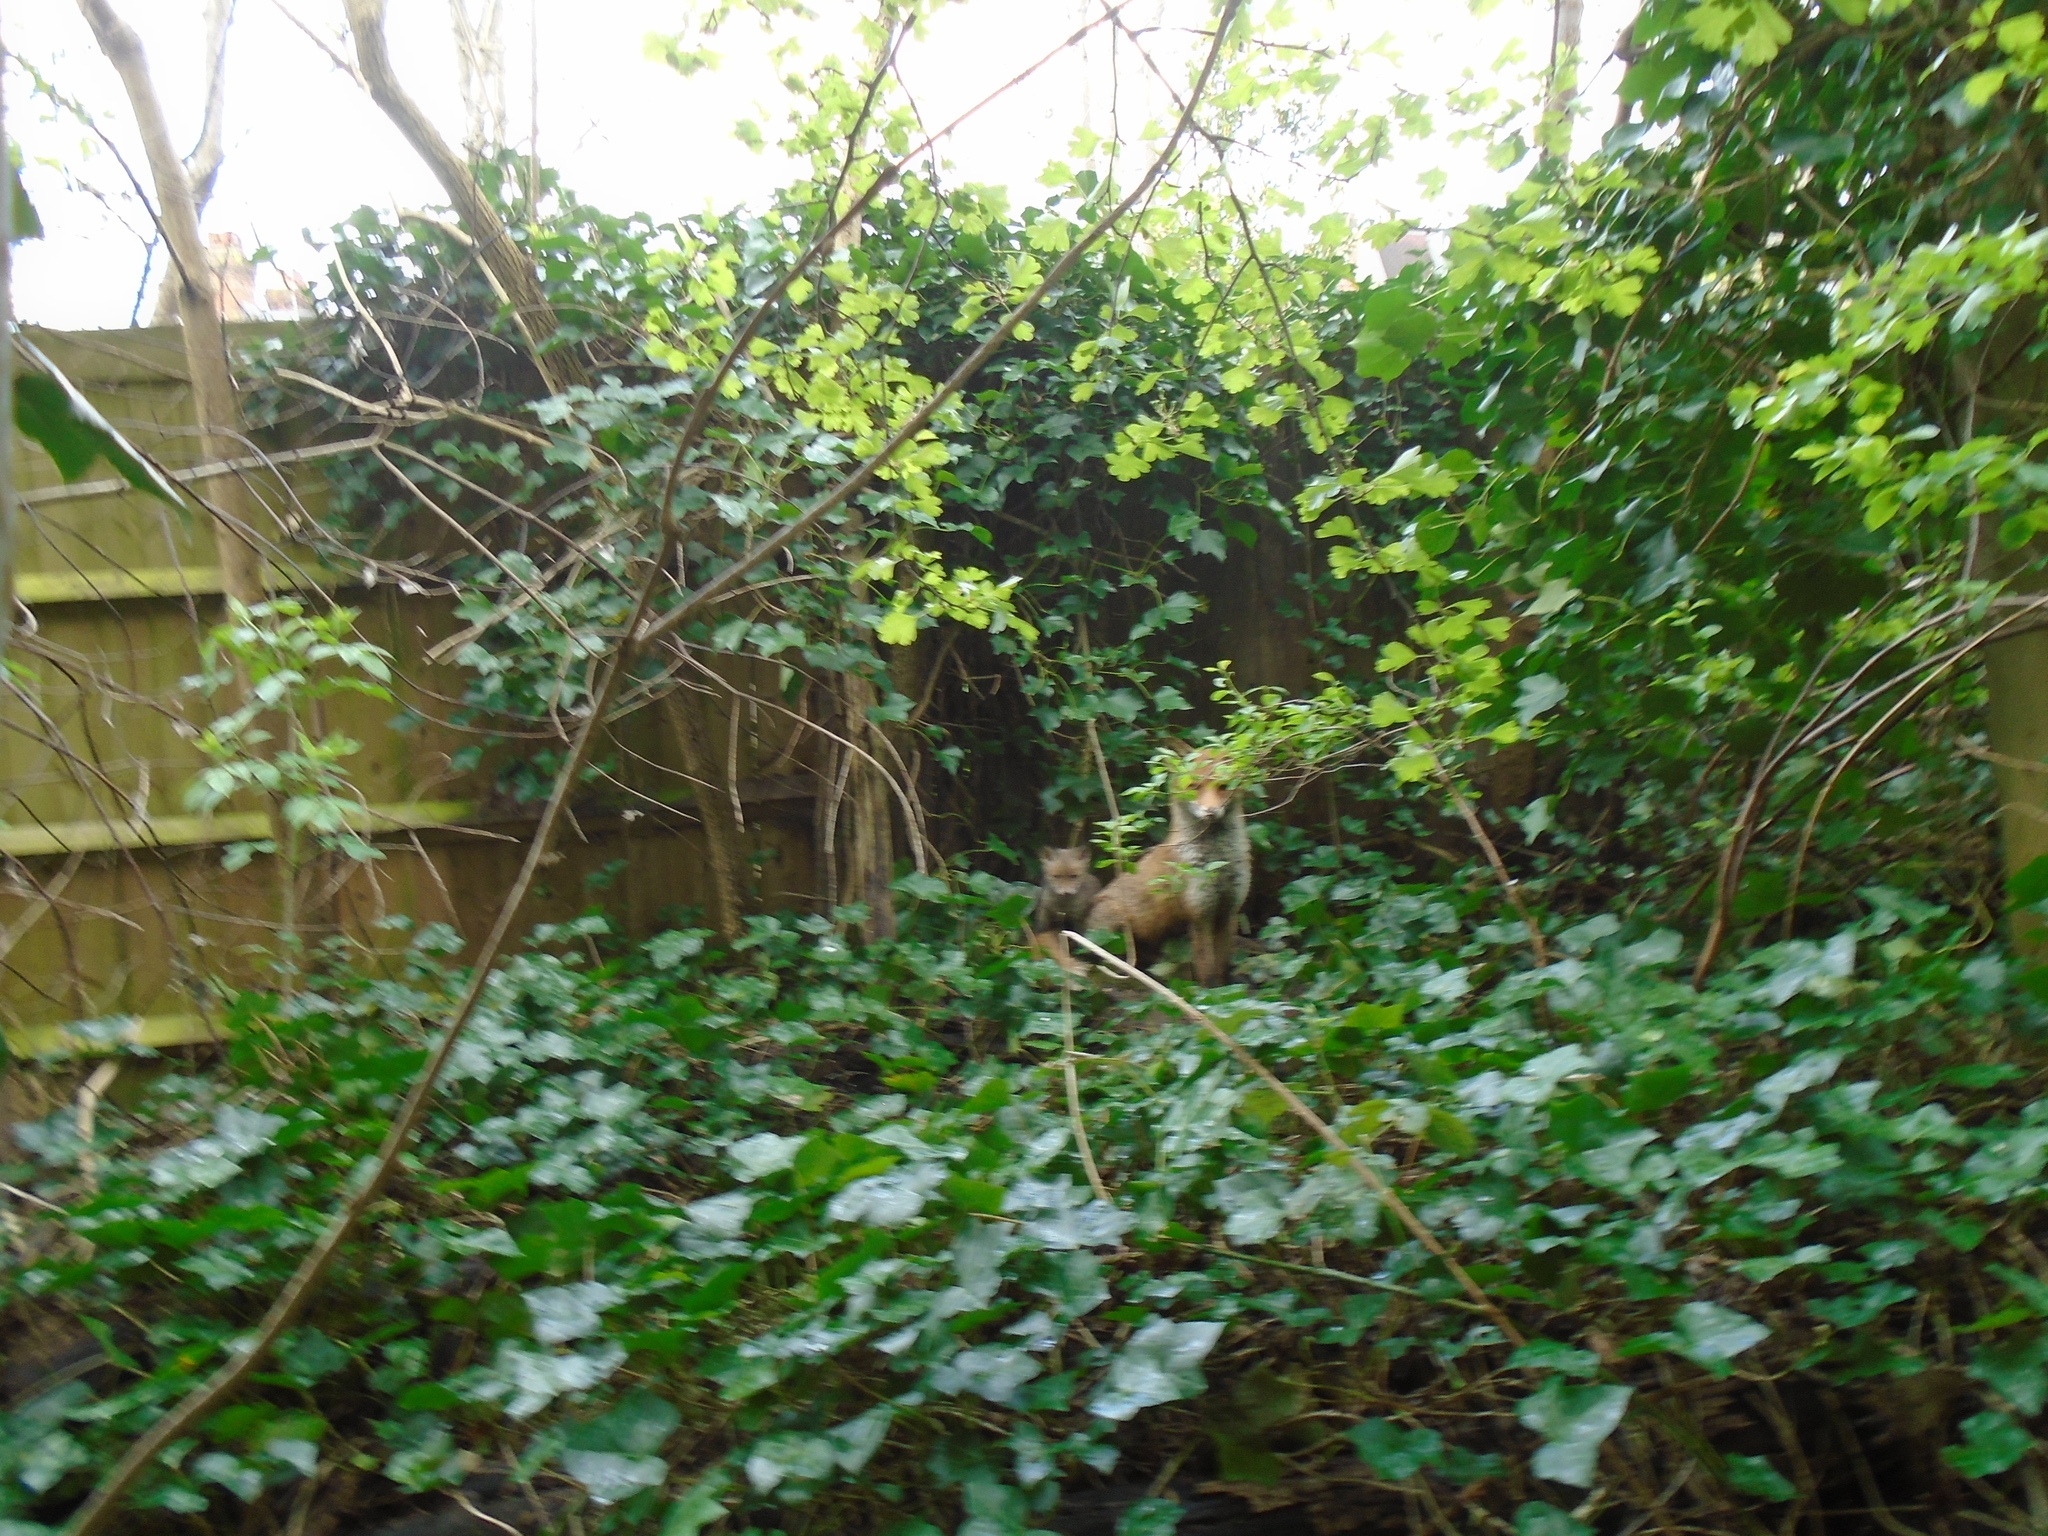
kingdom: Animalia
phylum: Chordata
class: Mammalia
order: Carnivora
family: Canidae
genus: Vulpes
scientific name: Vulpes vulpes
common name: Red fox
